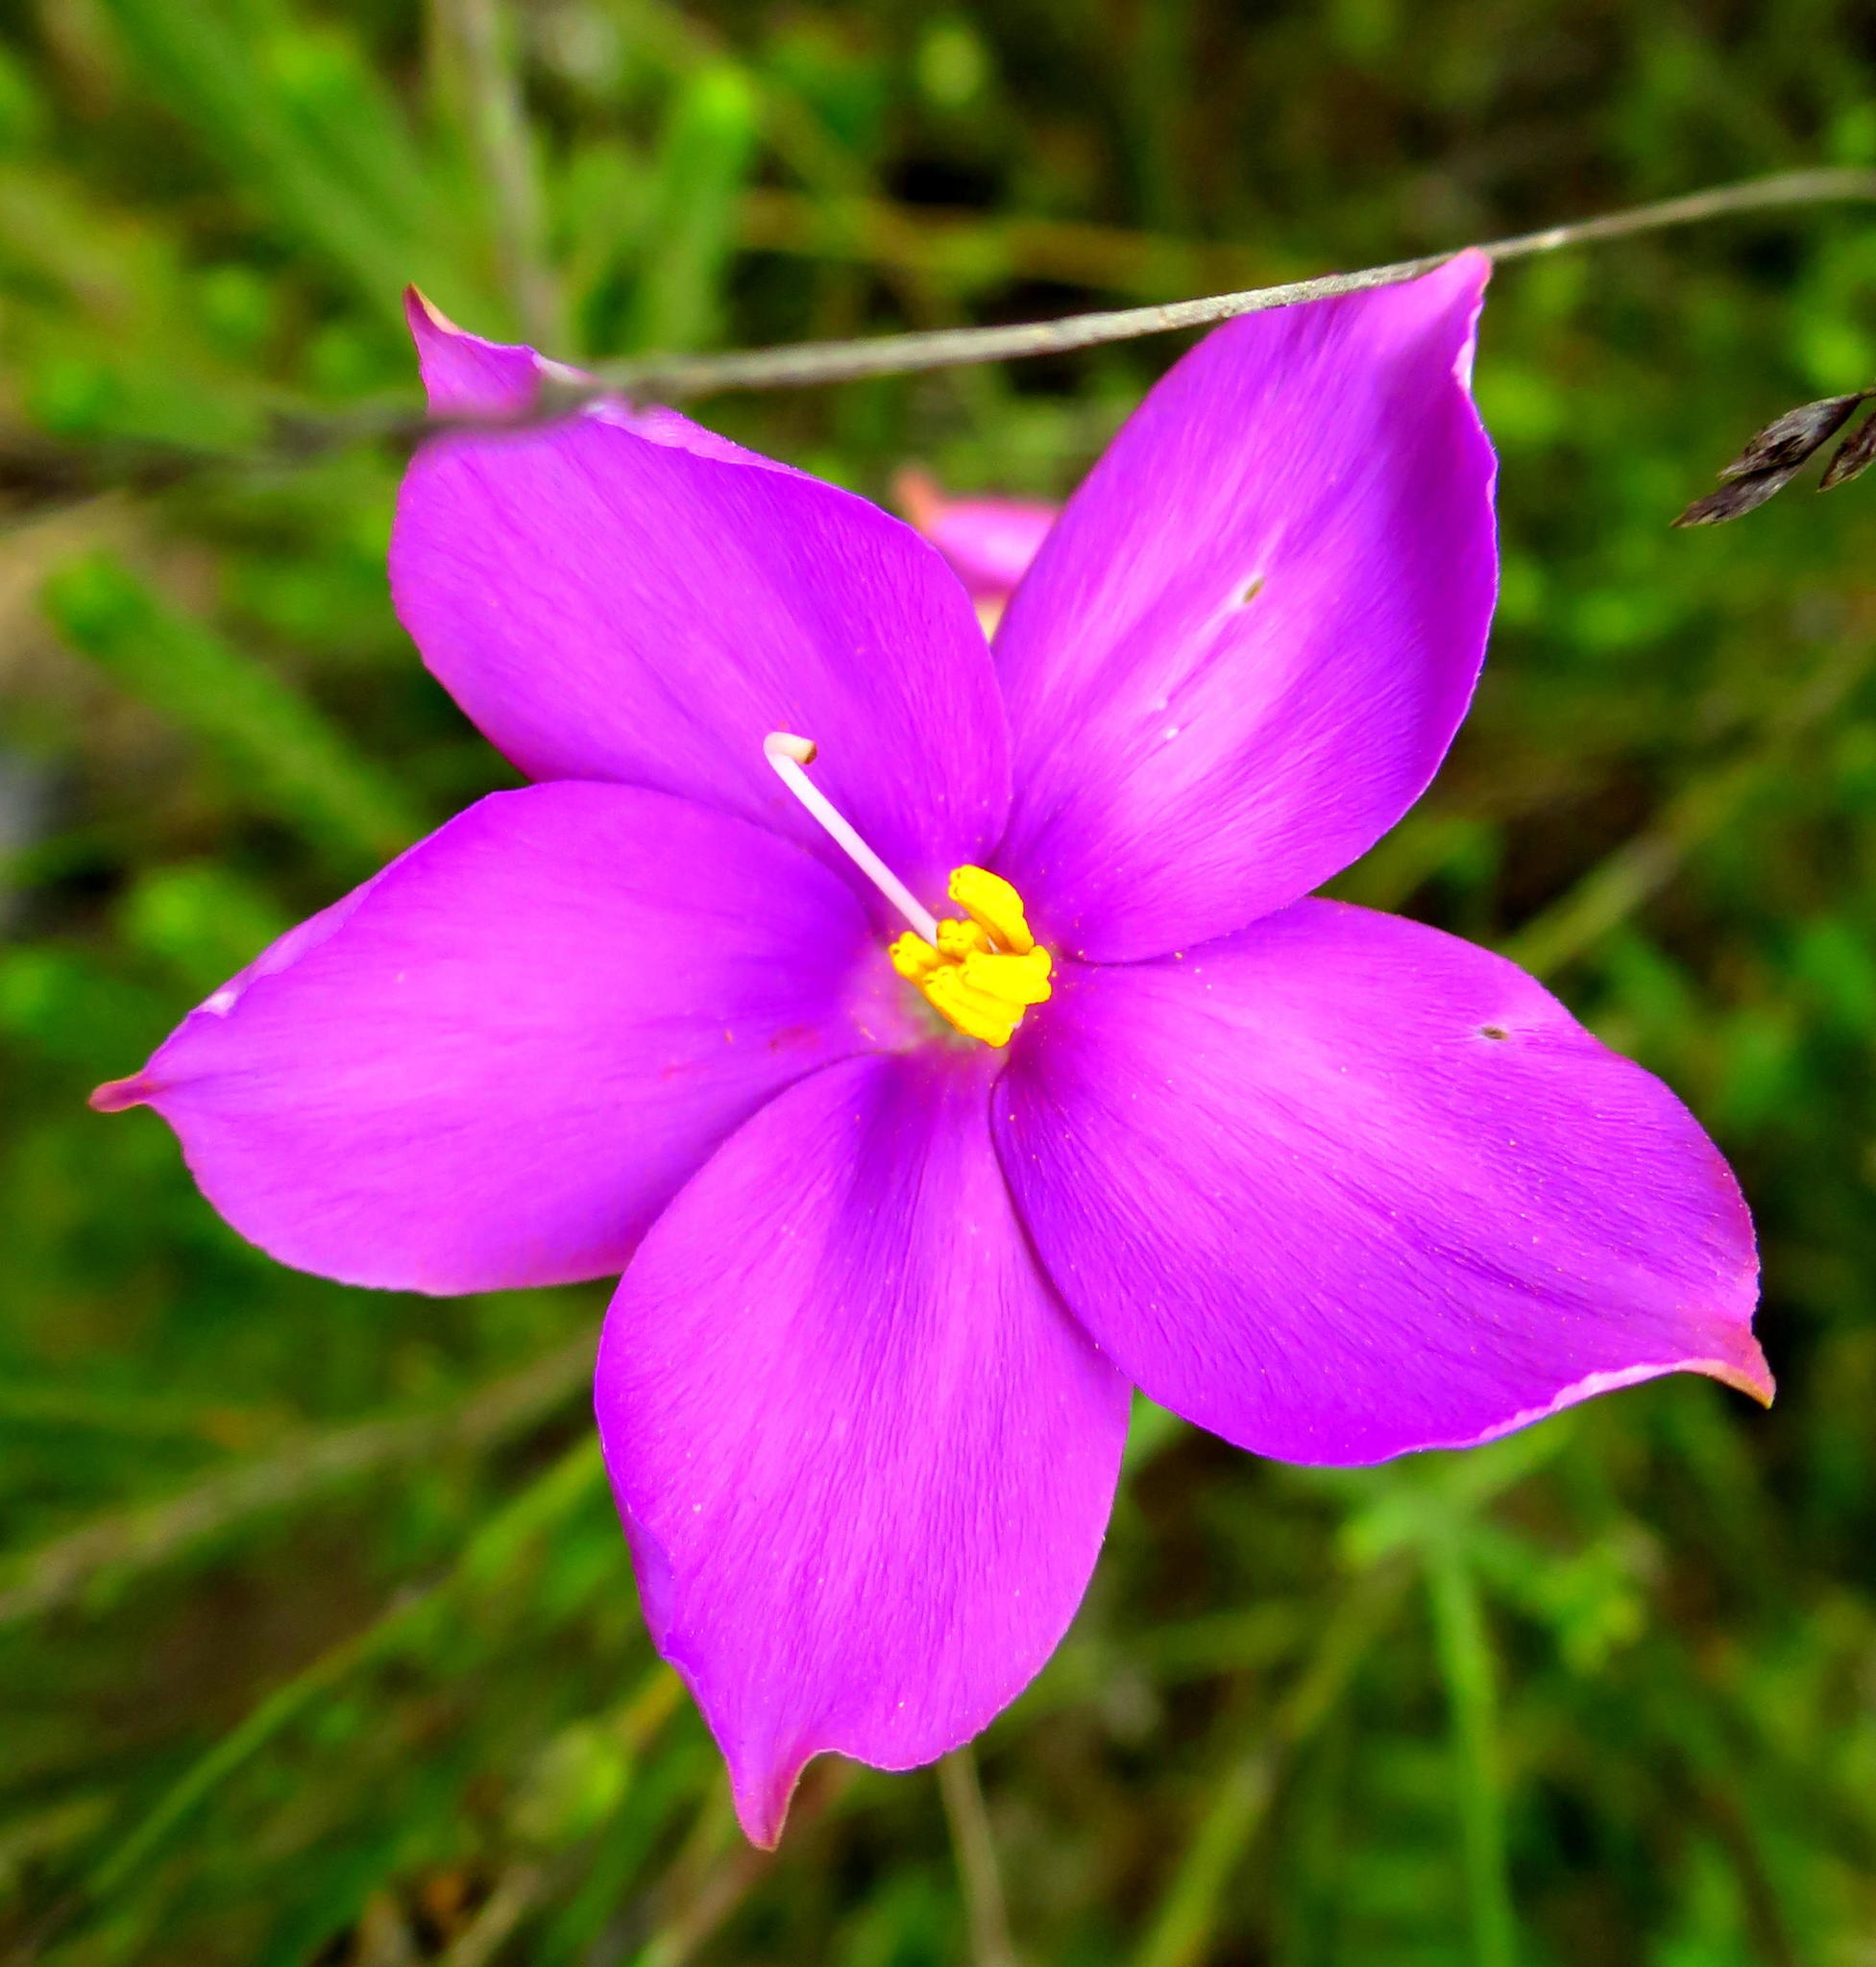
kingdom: Plantae
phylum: Tracheophyta
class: Magnoliopsida
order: Gentianales
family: Gentianaceae
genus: Chironia
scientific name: Chironia melampyrifolia
